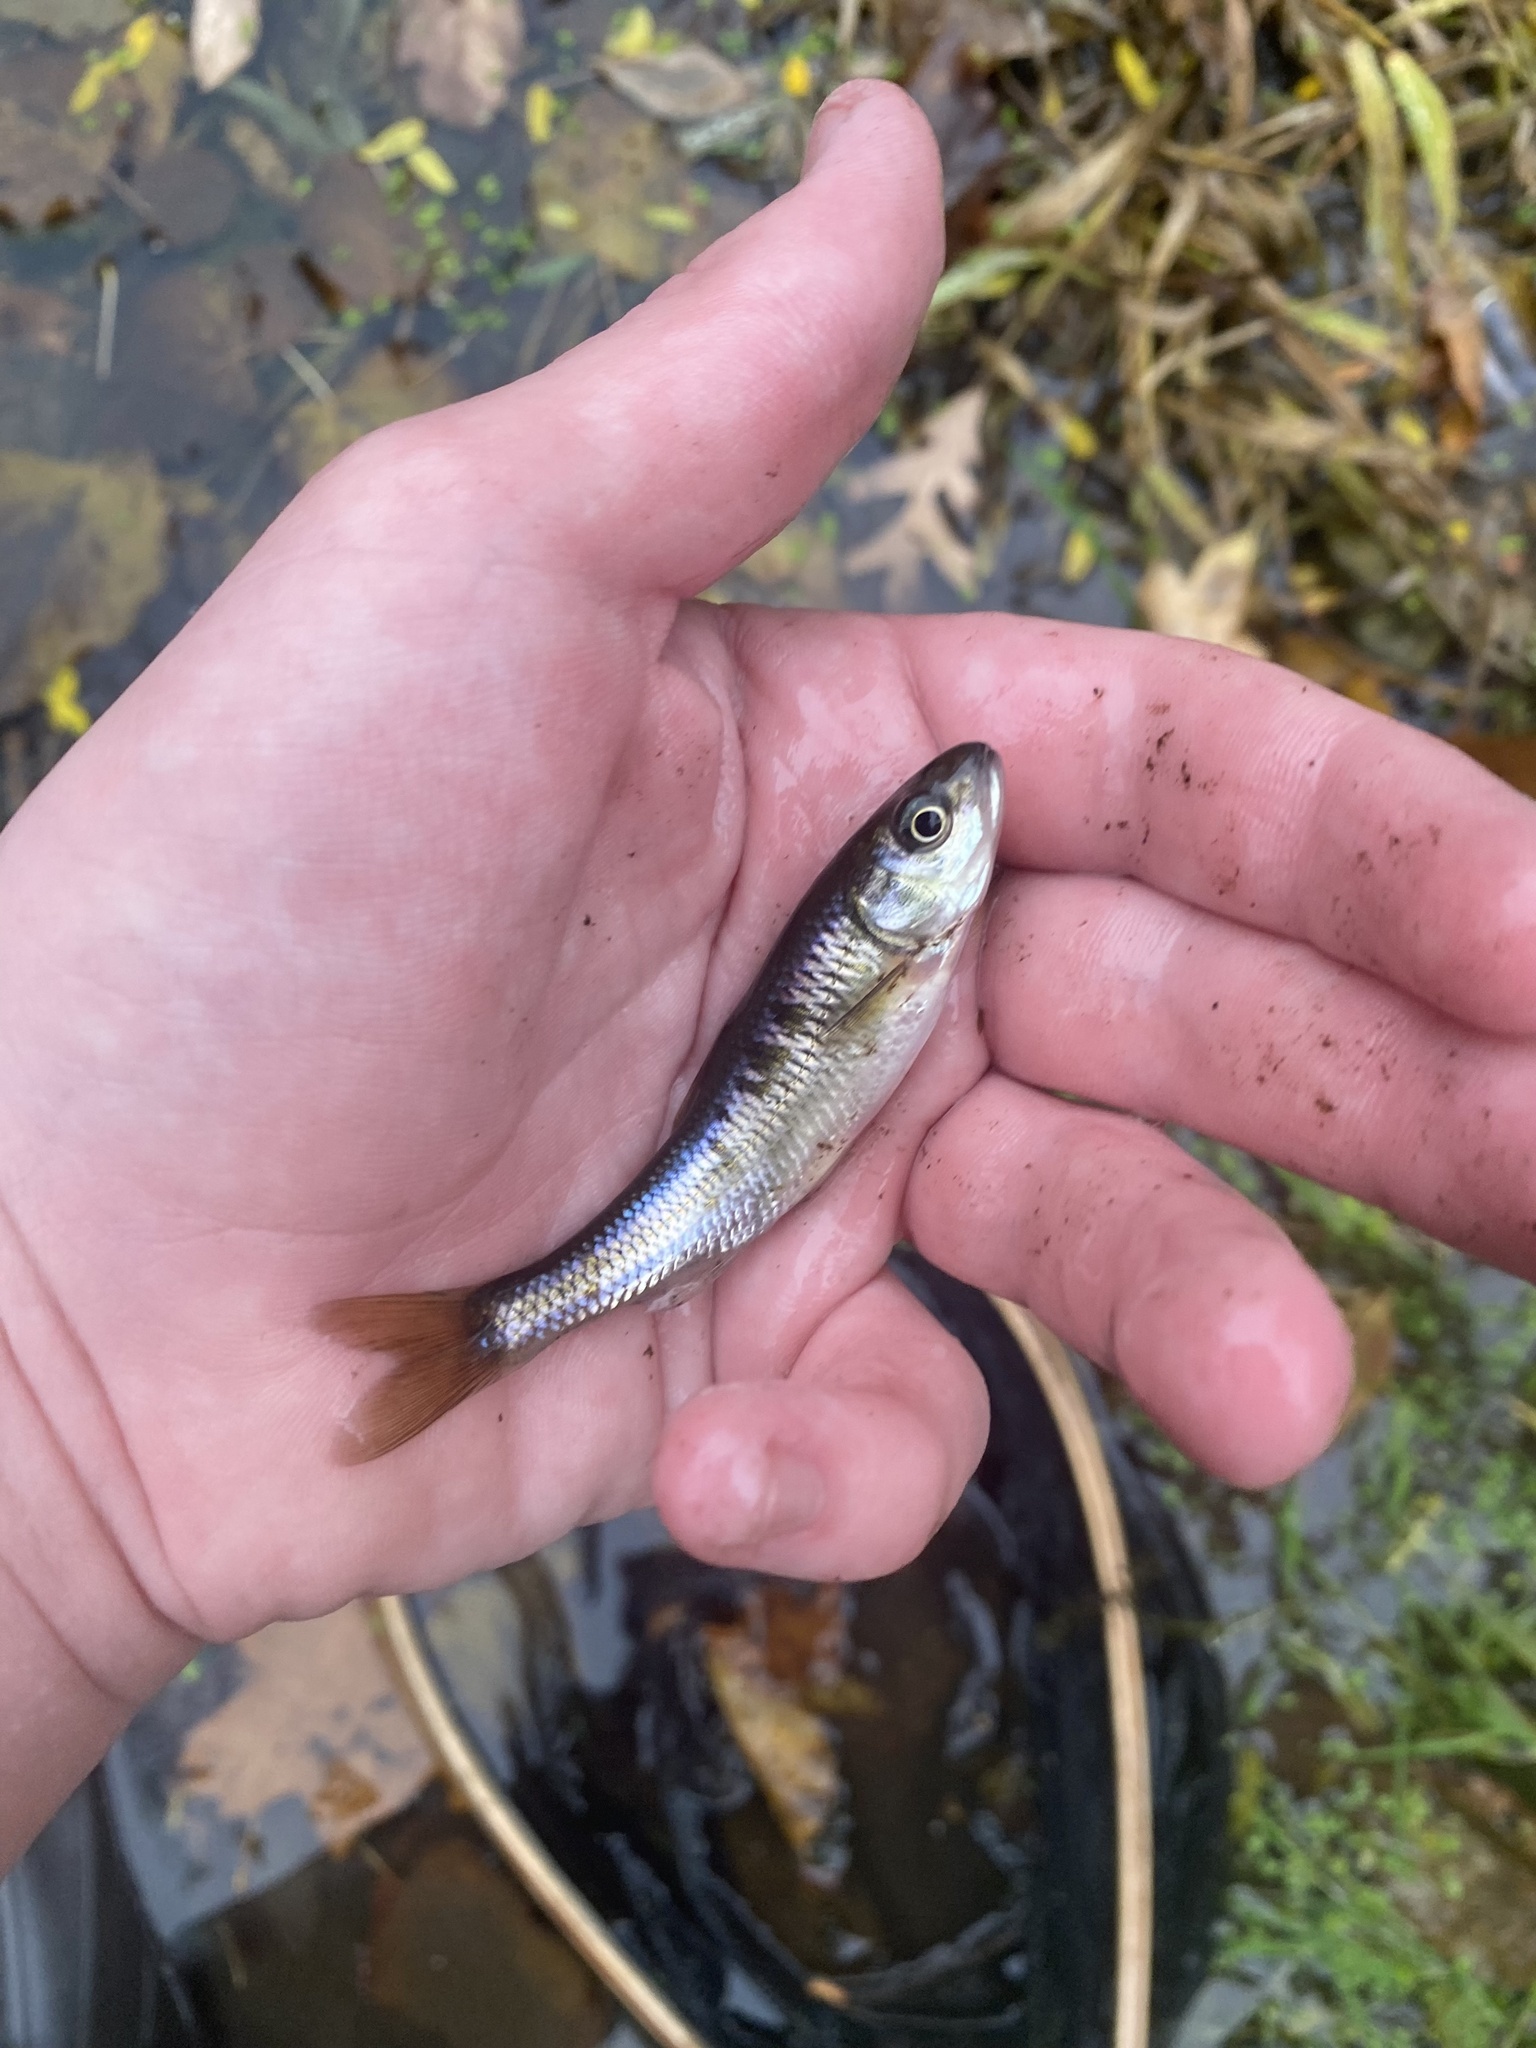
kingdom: Animalia
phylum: Chordata
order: Cypriniformes
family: Cyprinidae
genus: Luxilus
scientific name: Luxilus cornutus
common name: Common shiner
